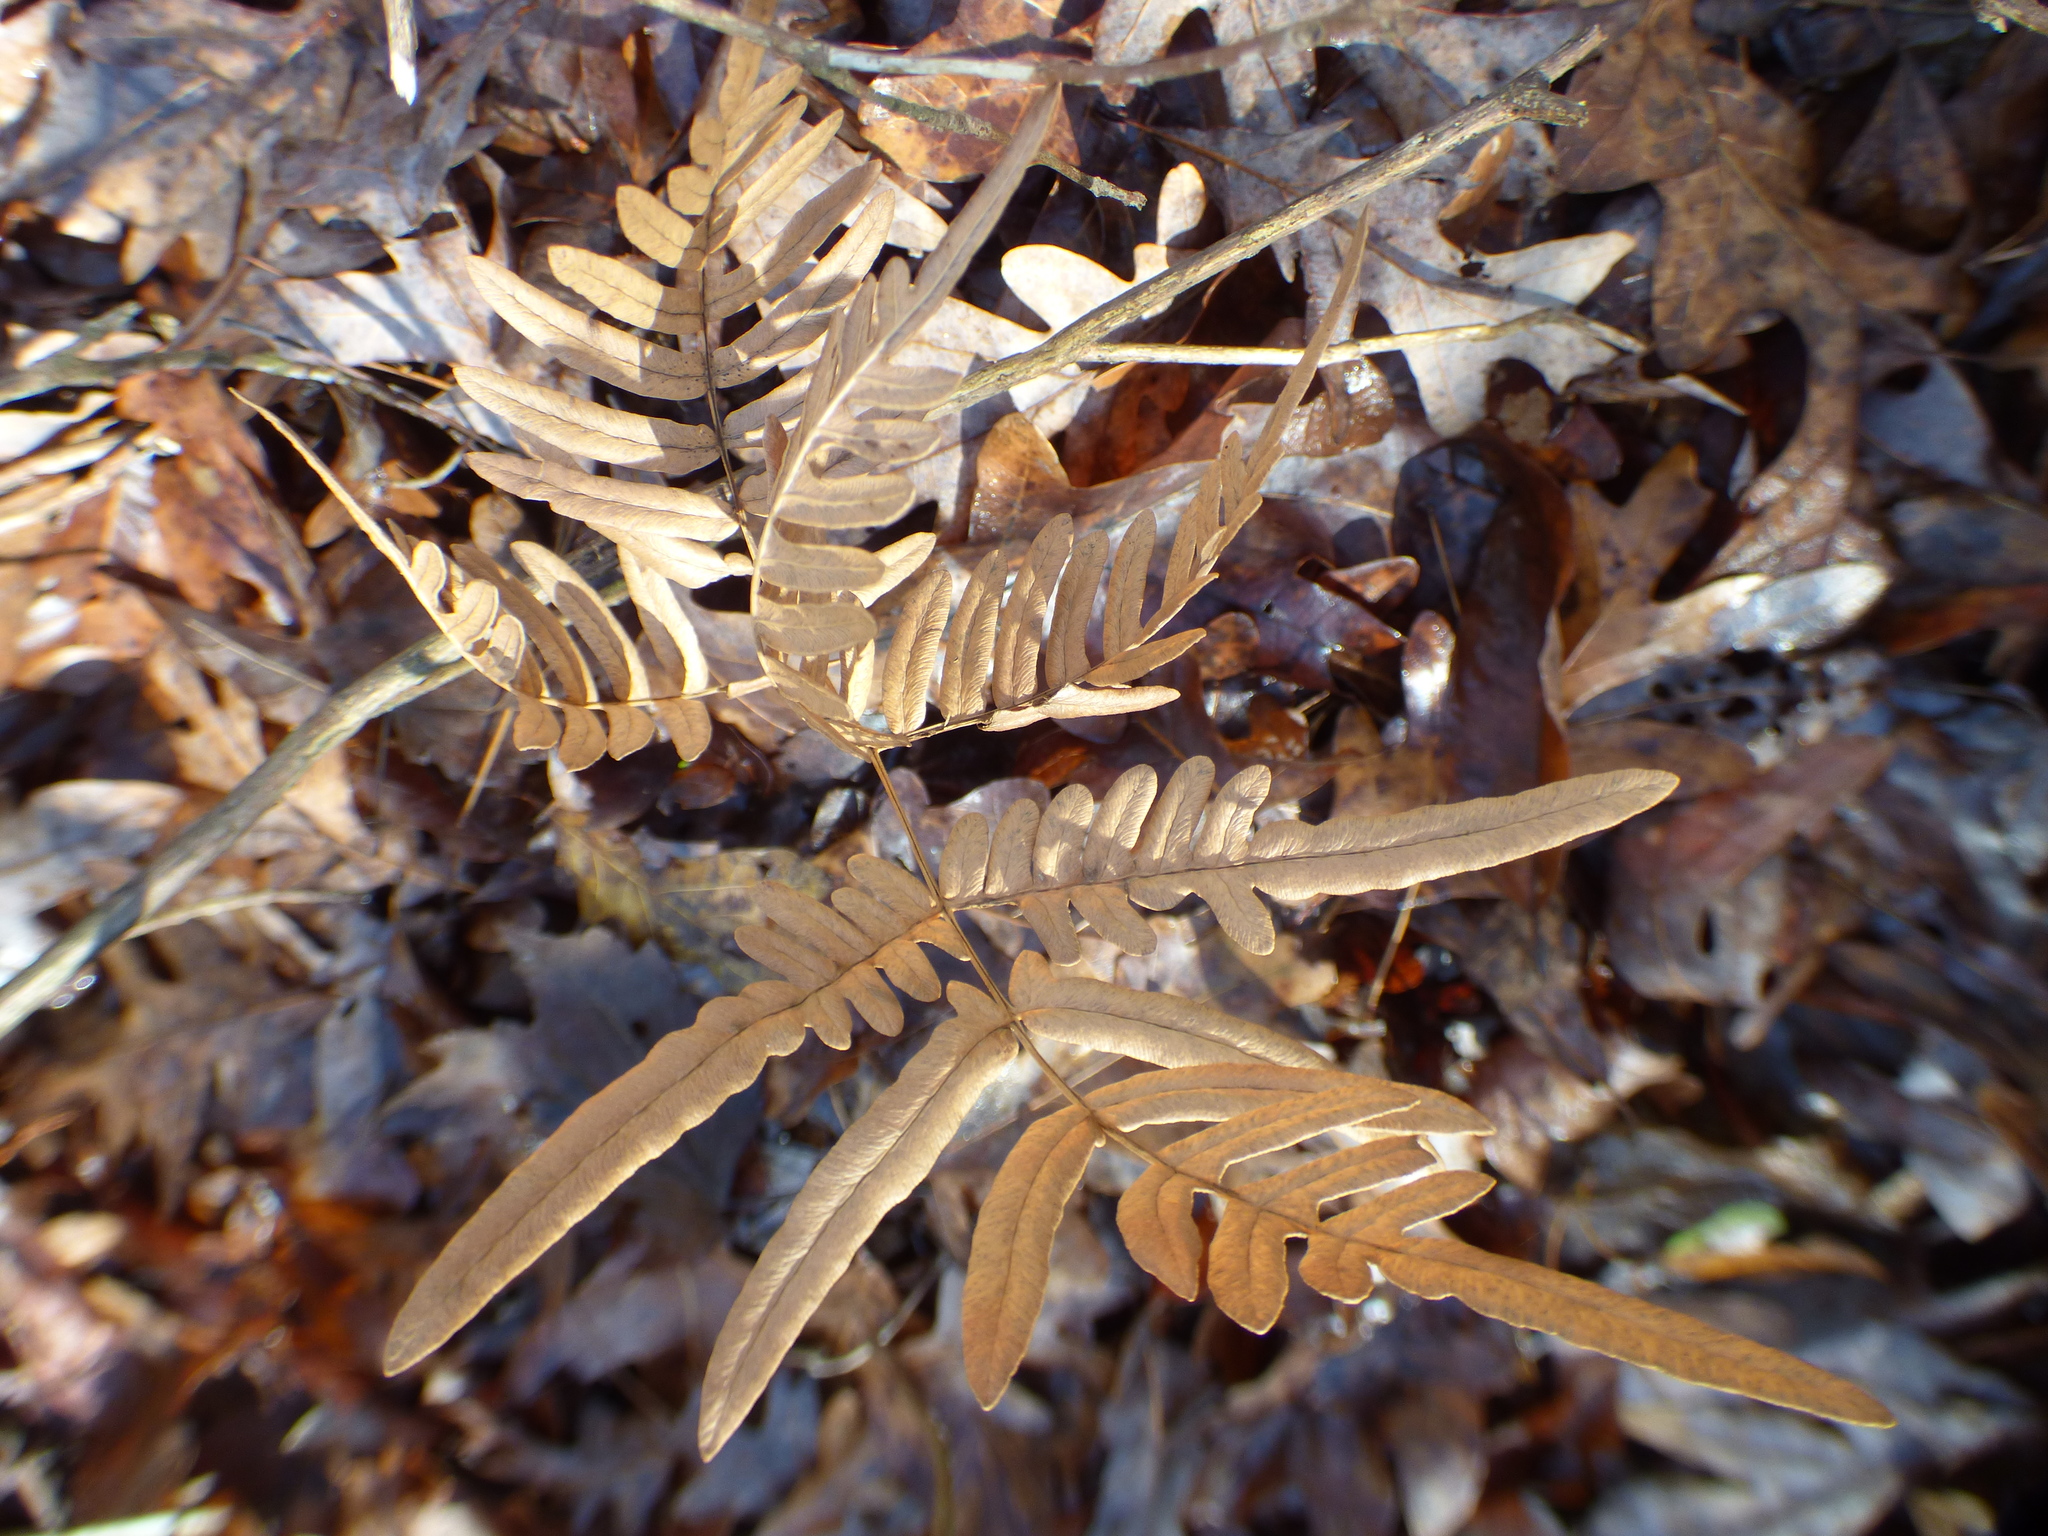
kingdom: Plantae
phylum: Tracheophyta
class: Polypodiopsida
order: Polypodiales
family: Dennstaedtiaceae
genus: Pteridium
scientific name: Pteridium aquilinum
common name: Bracken
